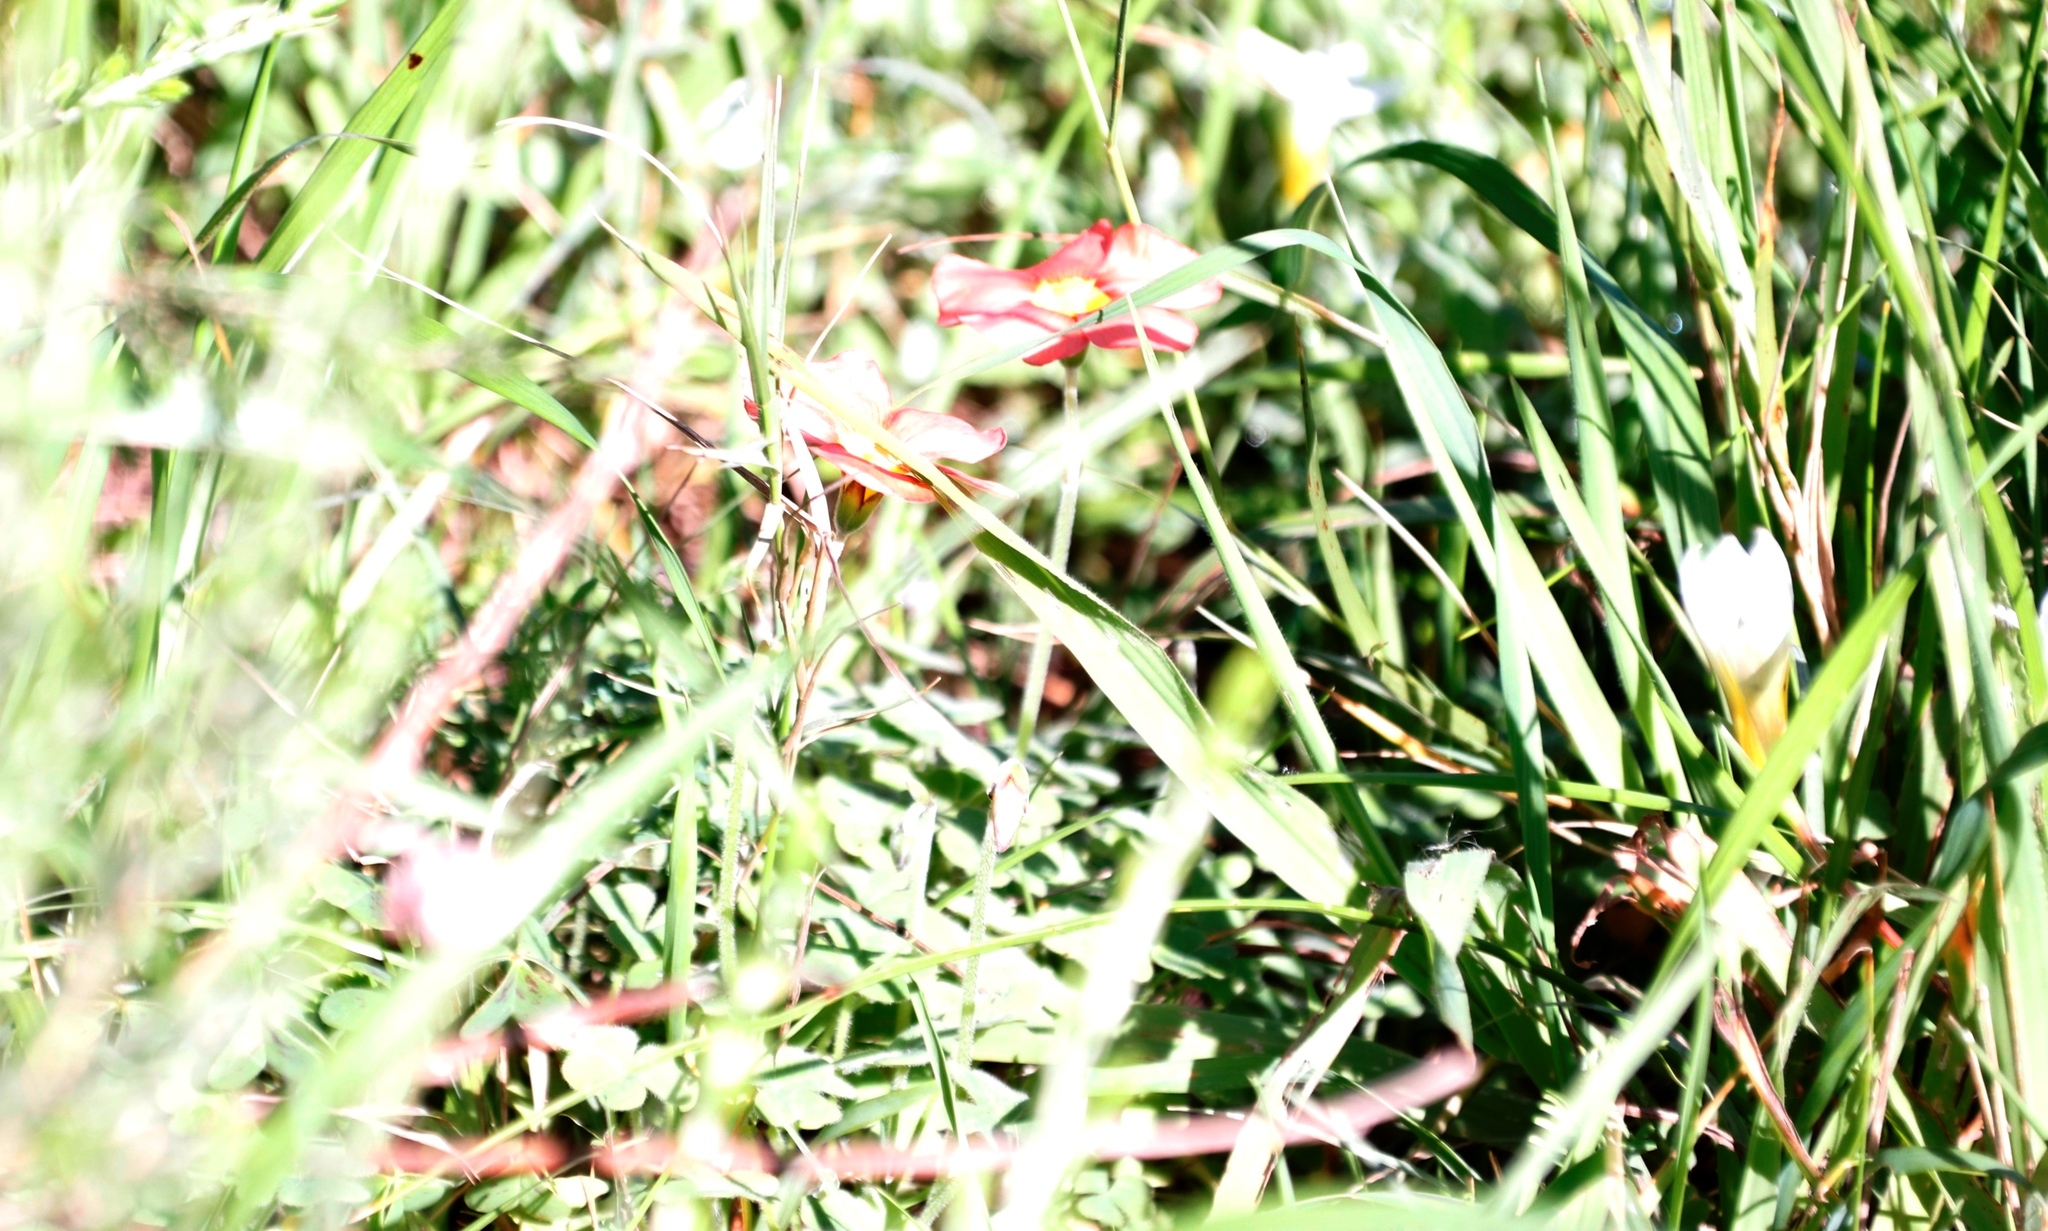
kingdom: Plantae
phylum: Tracheophyta
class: Magnoliopsida
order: Oxalidales
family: Oxalidaceae
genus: Oxalis
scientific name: Oxalis obtusa
